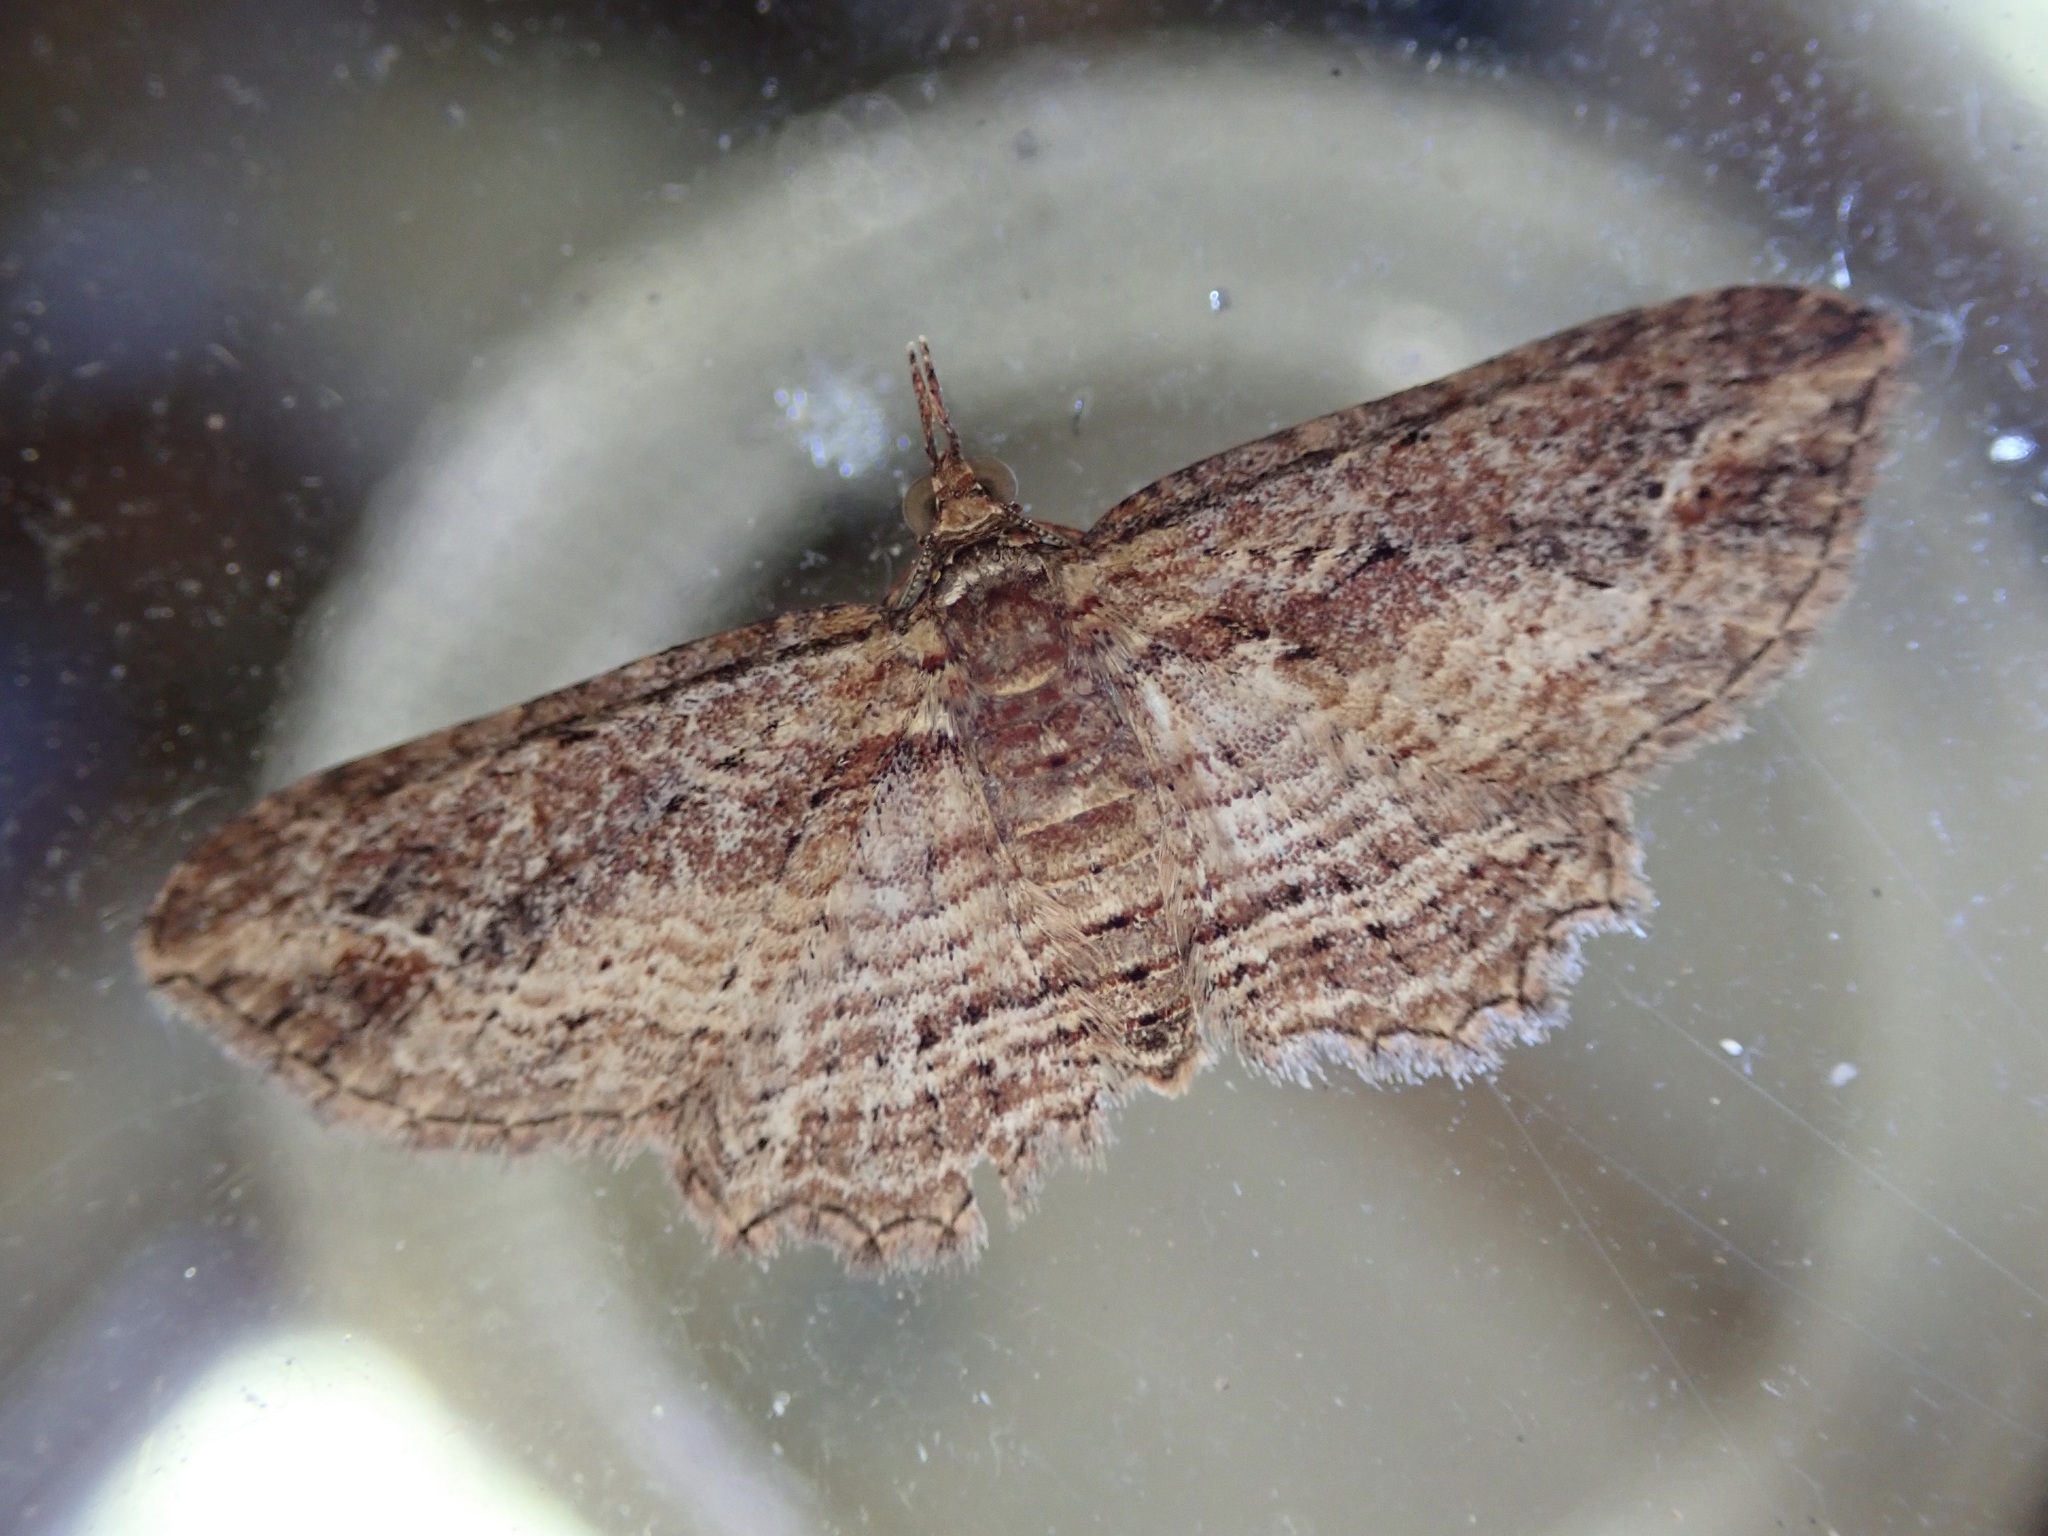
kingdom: Animalia
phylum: Arthropoda
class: Insecta
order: Lepidoptera
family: Geometridae
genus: Chloroclystis
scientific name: Chloroclystis filata
